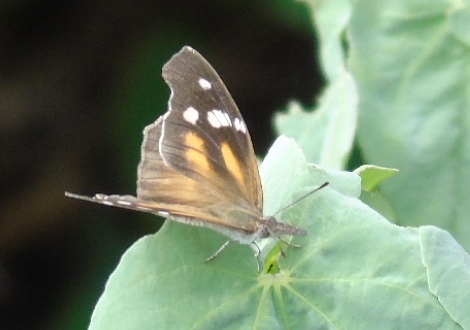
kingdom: Animalia
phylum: Arthropoda
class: Insecta
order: Lepidoptera
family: Nymphalidae
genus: Libytheana
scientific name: Libytheana carinenta
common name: American snout
